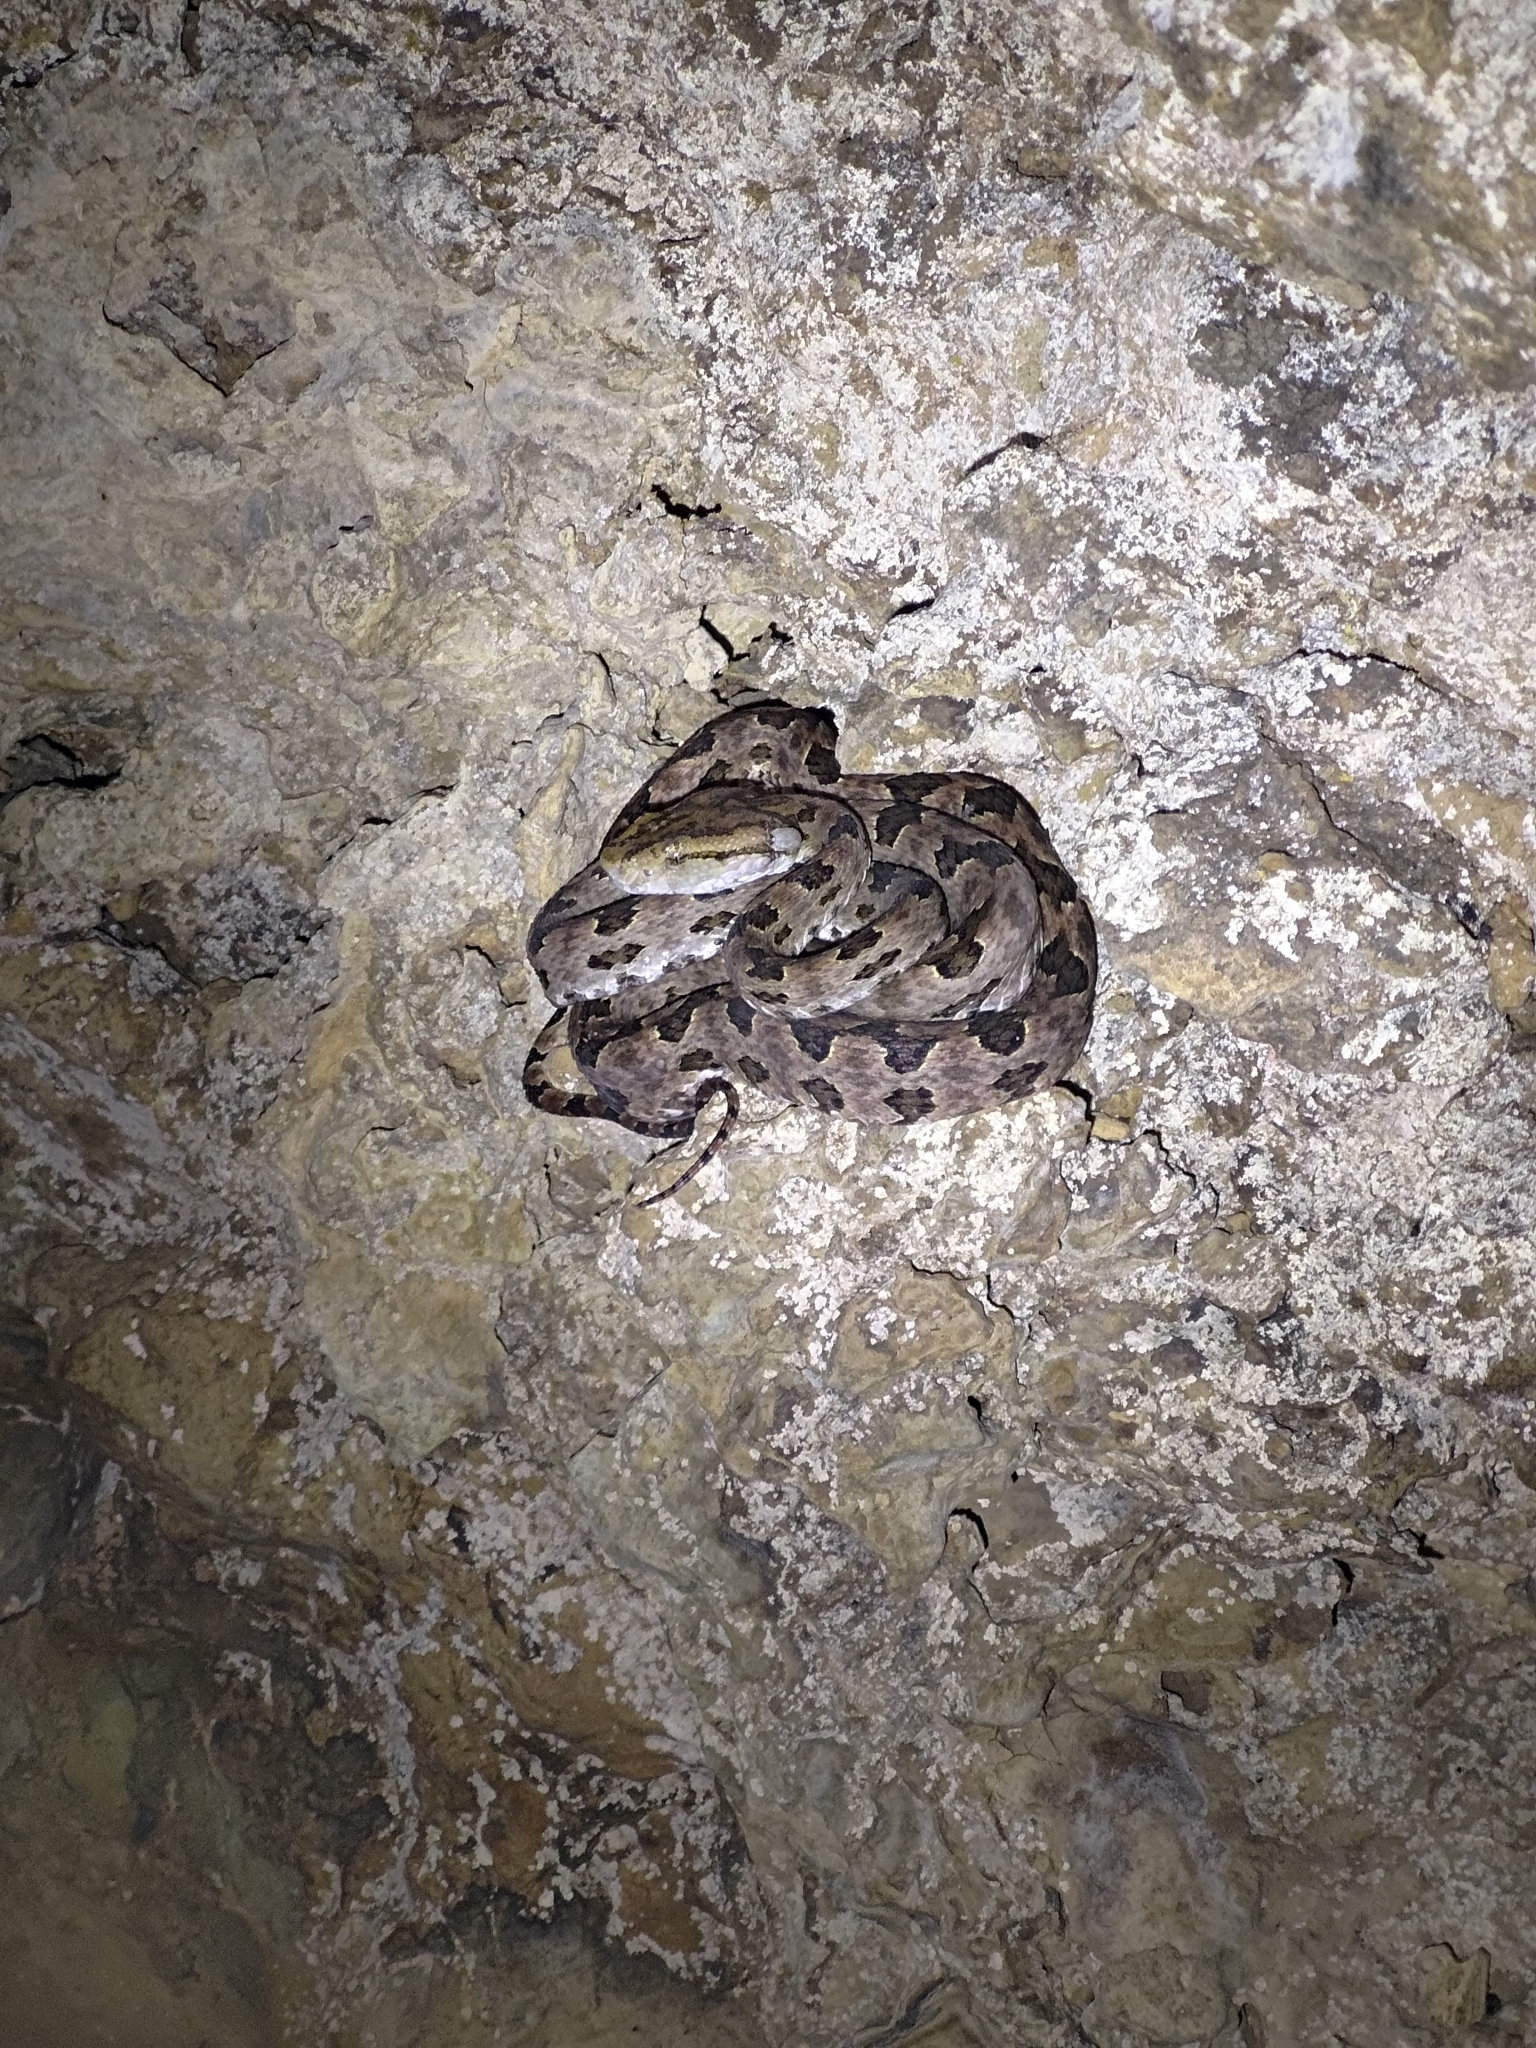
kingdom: Animalia
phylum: Chordata
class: Squamata
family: Viperidae
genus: Protobothrops
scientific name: Protobothrops mucrosquamatus
